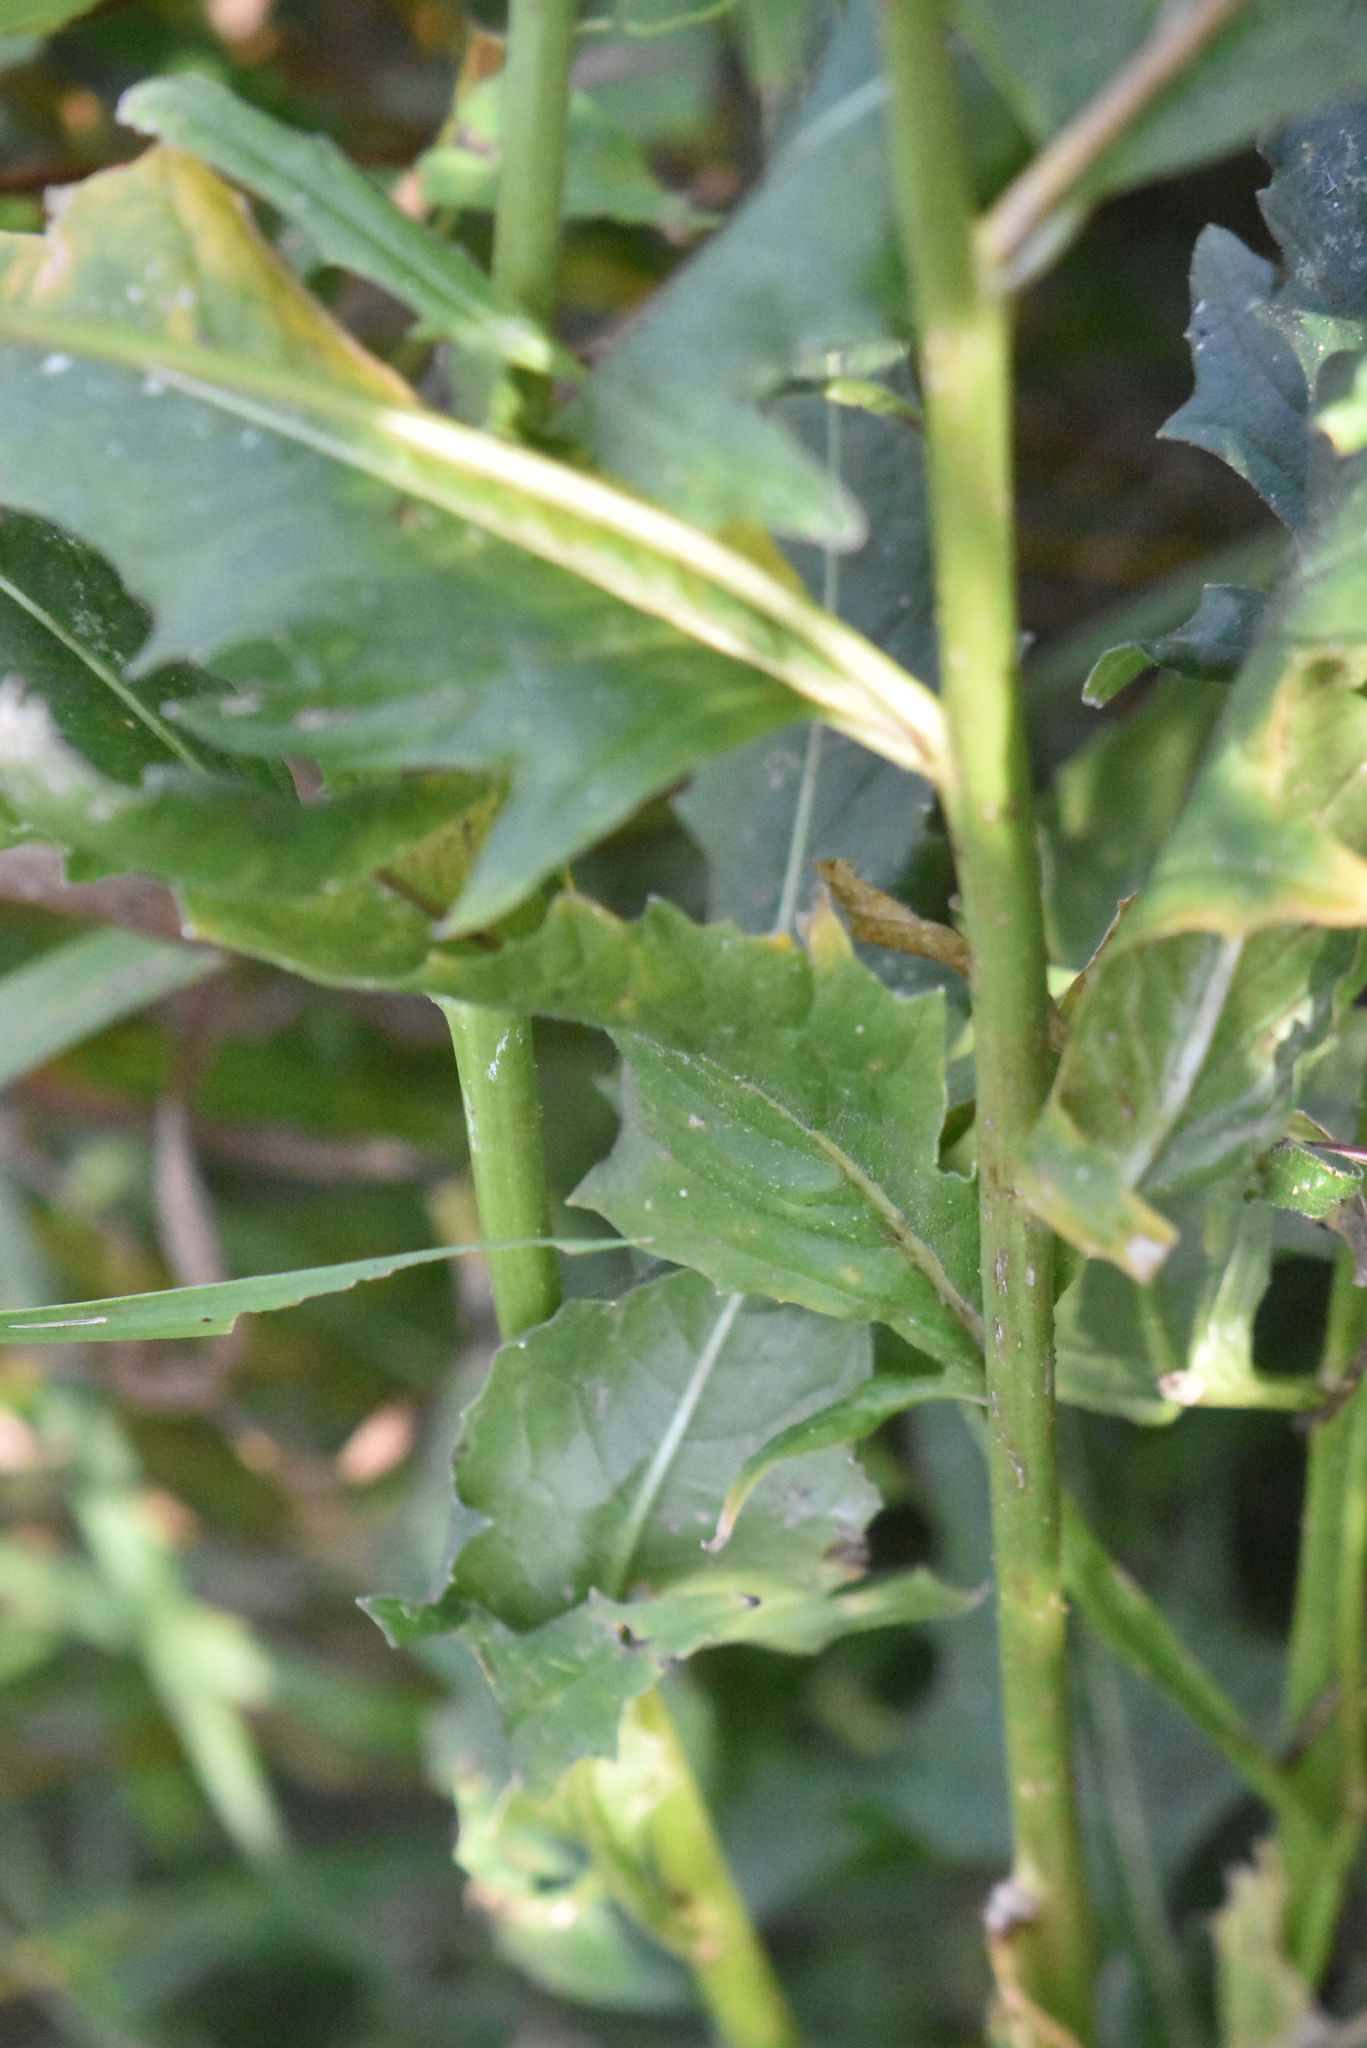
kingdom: Plantae
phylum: Tracheophyta
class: Magnoliopsida
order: Brassicales
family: Brassicaceae
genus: Bunias
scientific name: Bunias orientalis
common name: Warty-cabbage
